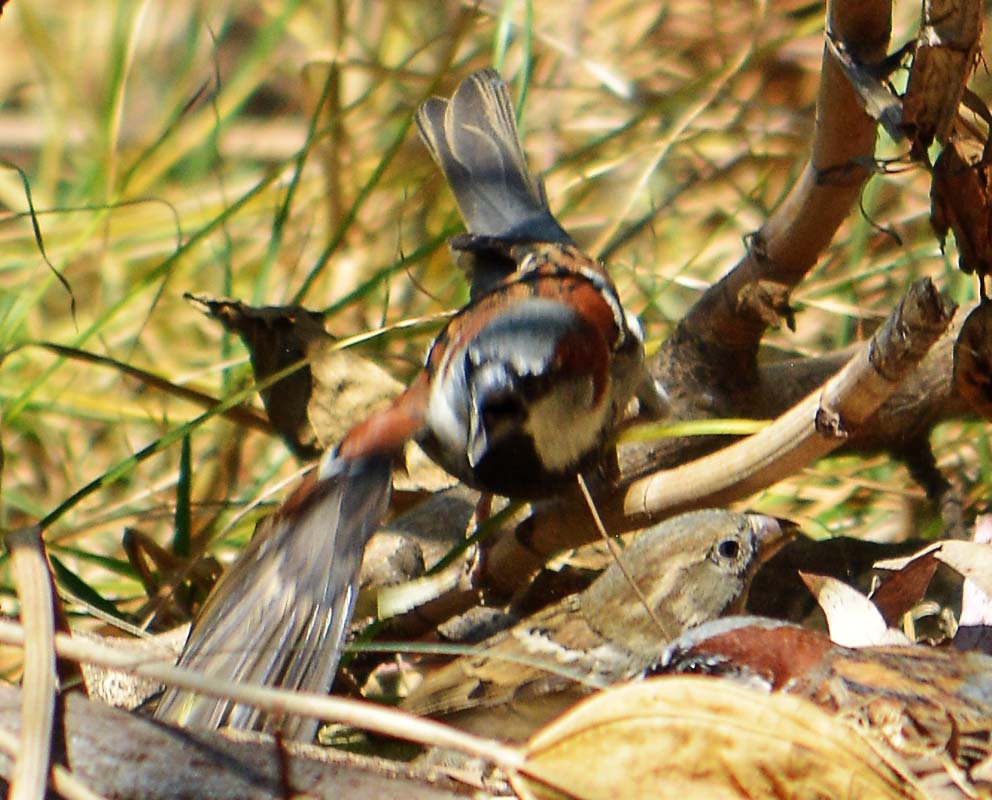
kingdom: Animalia
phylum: Chordata
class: Aves
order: Passeriformes
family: Passeridae
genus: Passer
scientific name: Passer domesticus
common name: House sparrow
